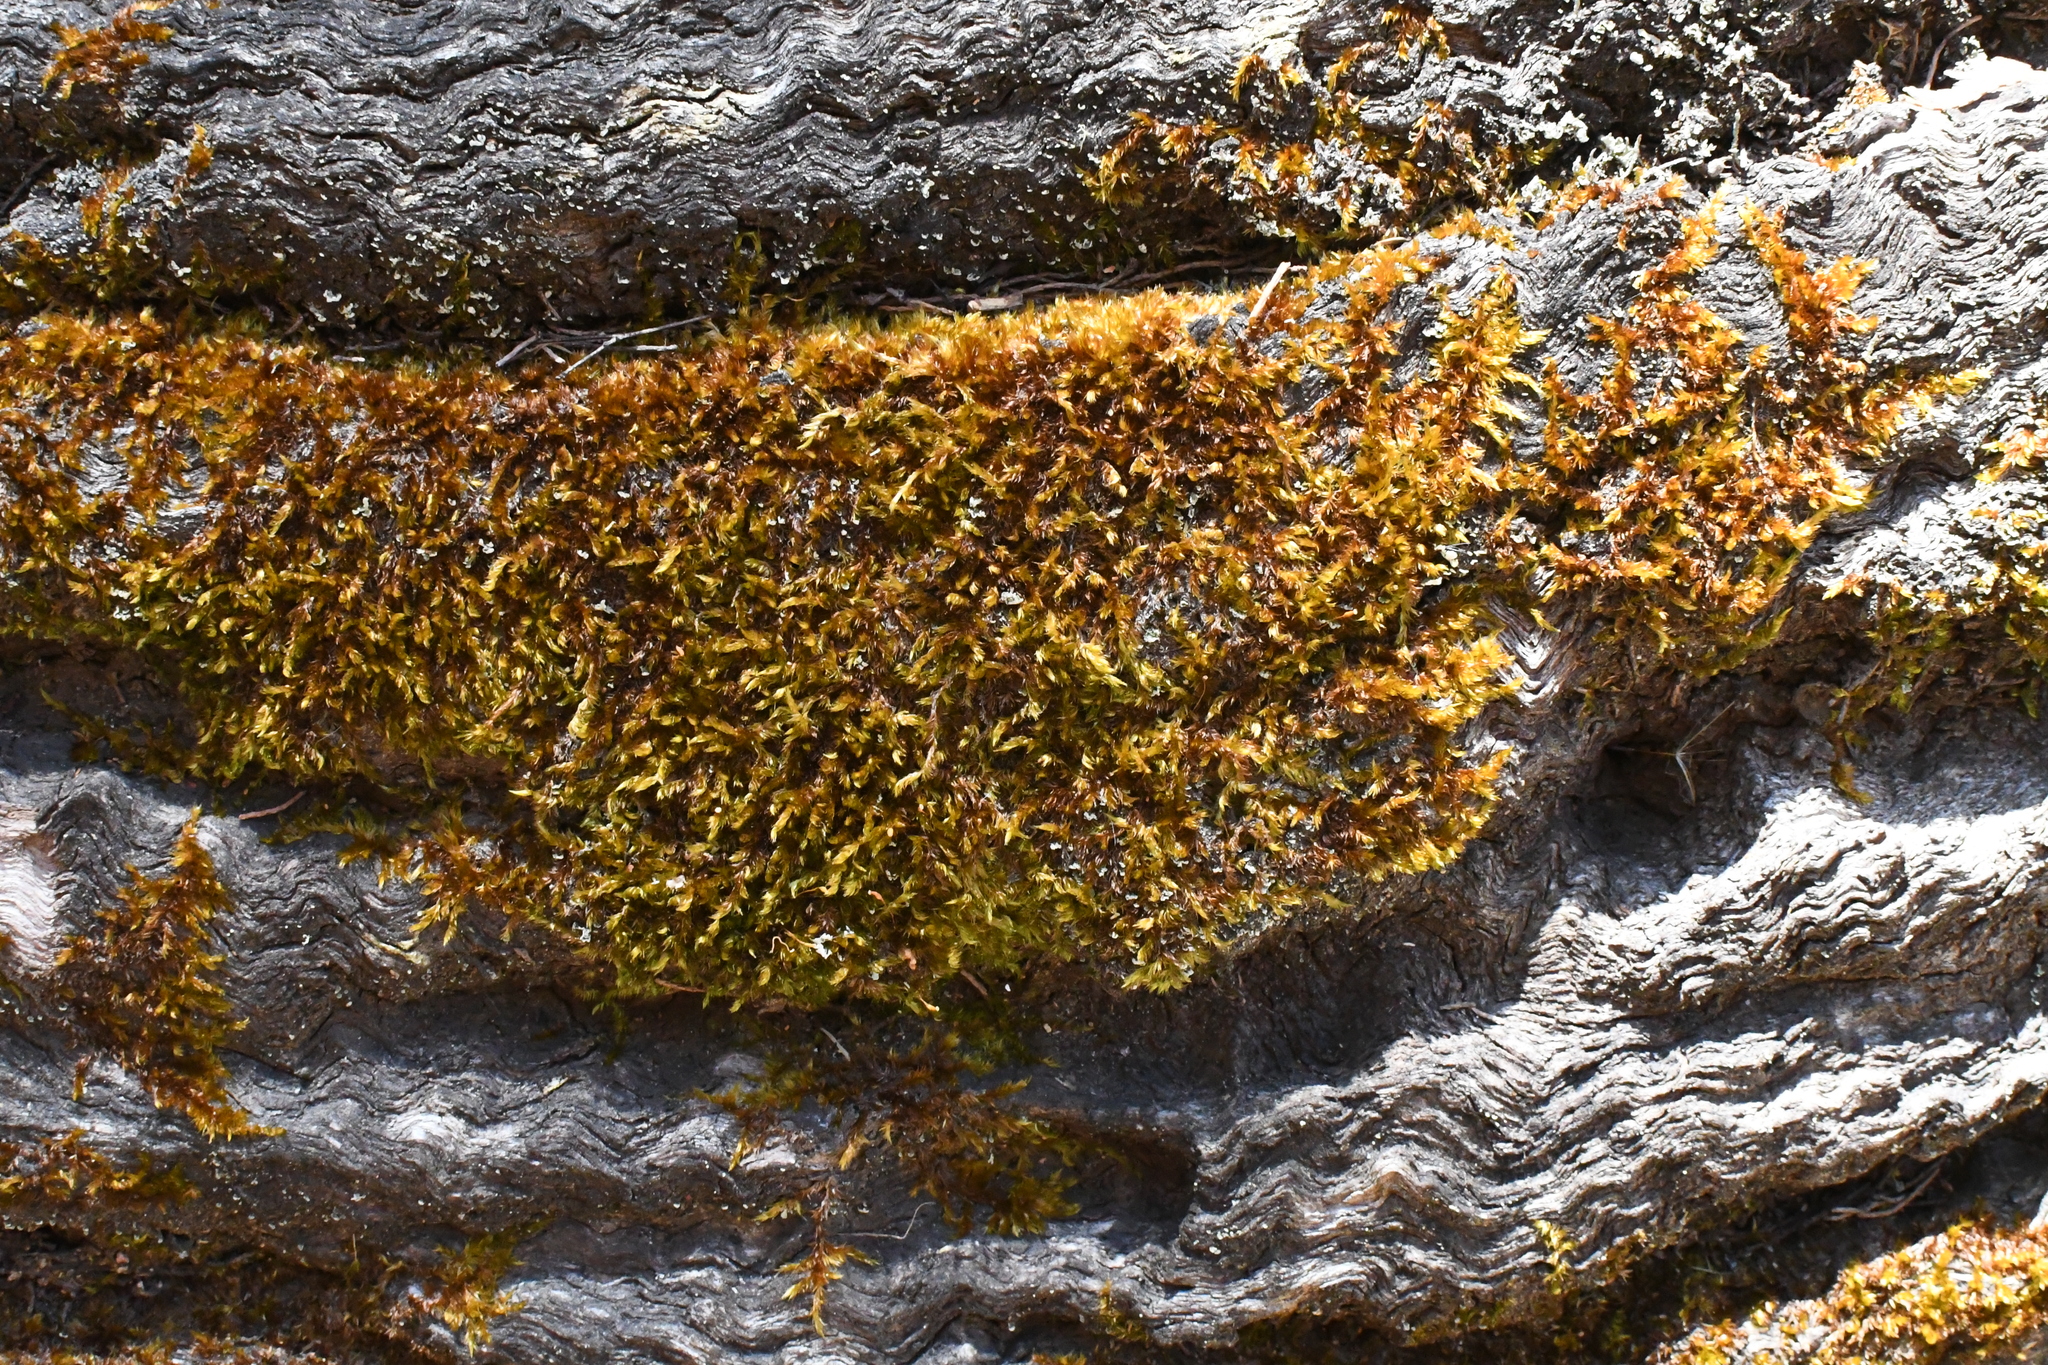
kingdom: Plantae
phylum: Bryophyta
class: Bryopsida
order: Hypnales
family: Sematophyllaceae
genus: Sematophyllum
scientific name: Sematophyllum homomallum
